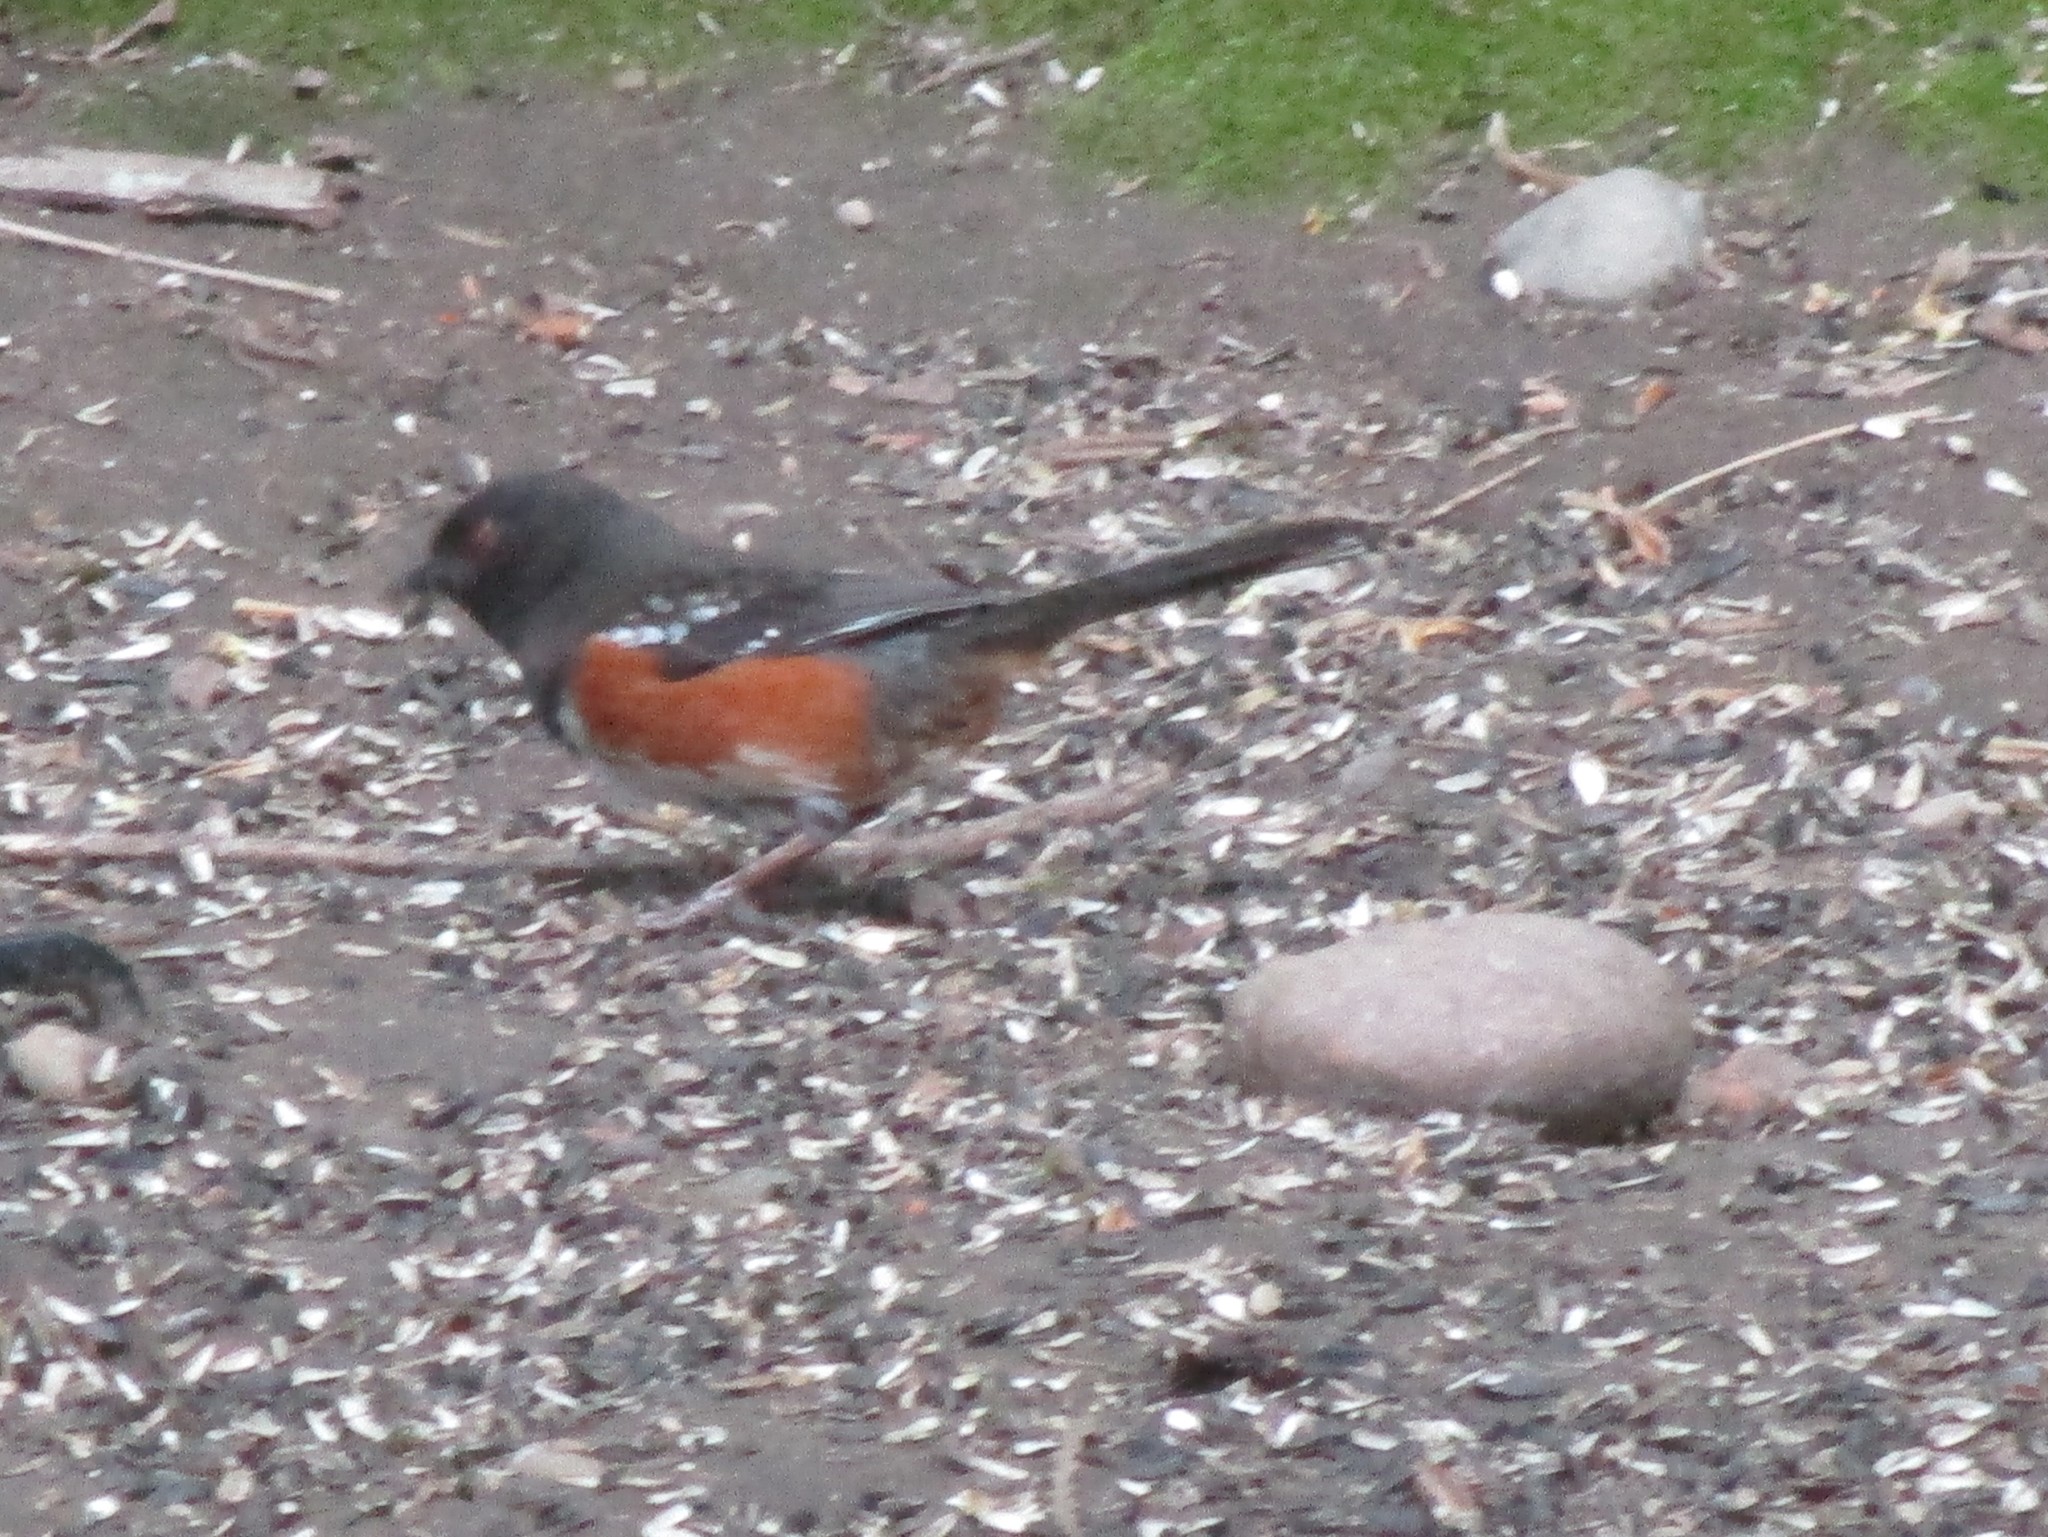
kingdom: Animalia
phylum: Chordata
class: Aves
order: Passeriformes
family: Passerellidae
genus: Pipilo
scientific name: Pipilo maculatus
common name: Spotted towhee
